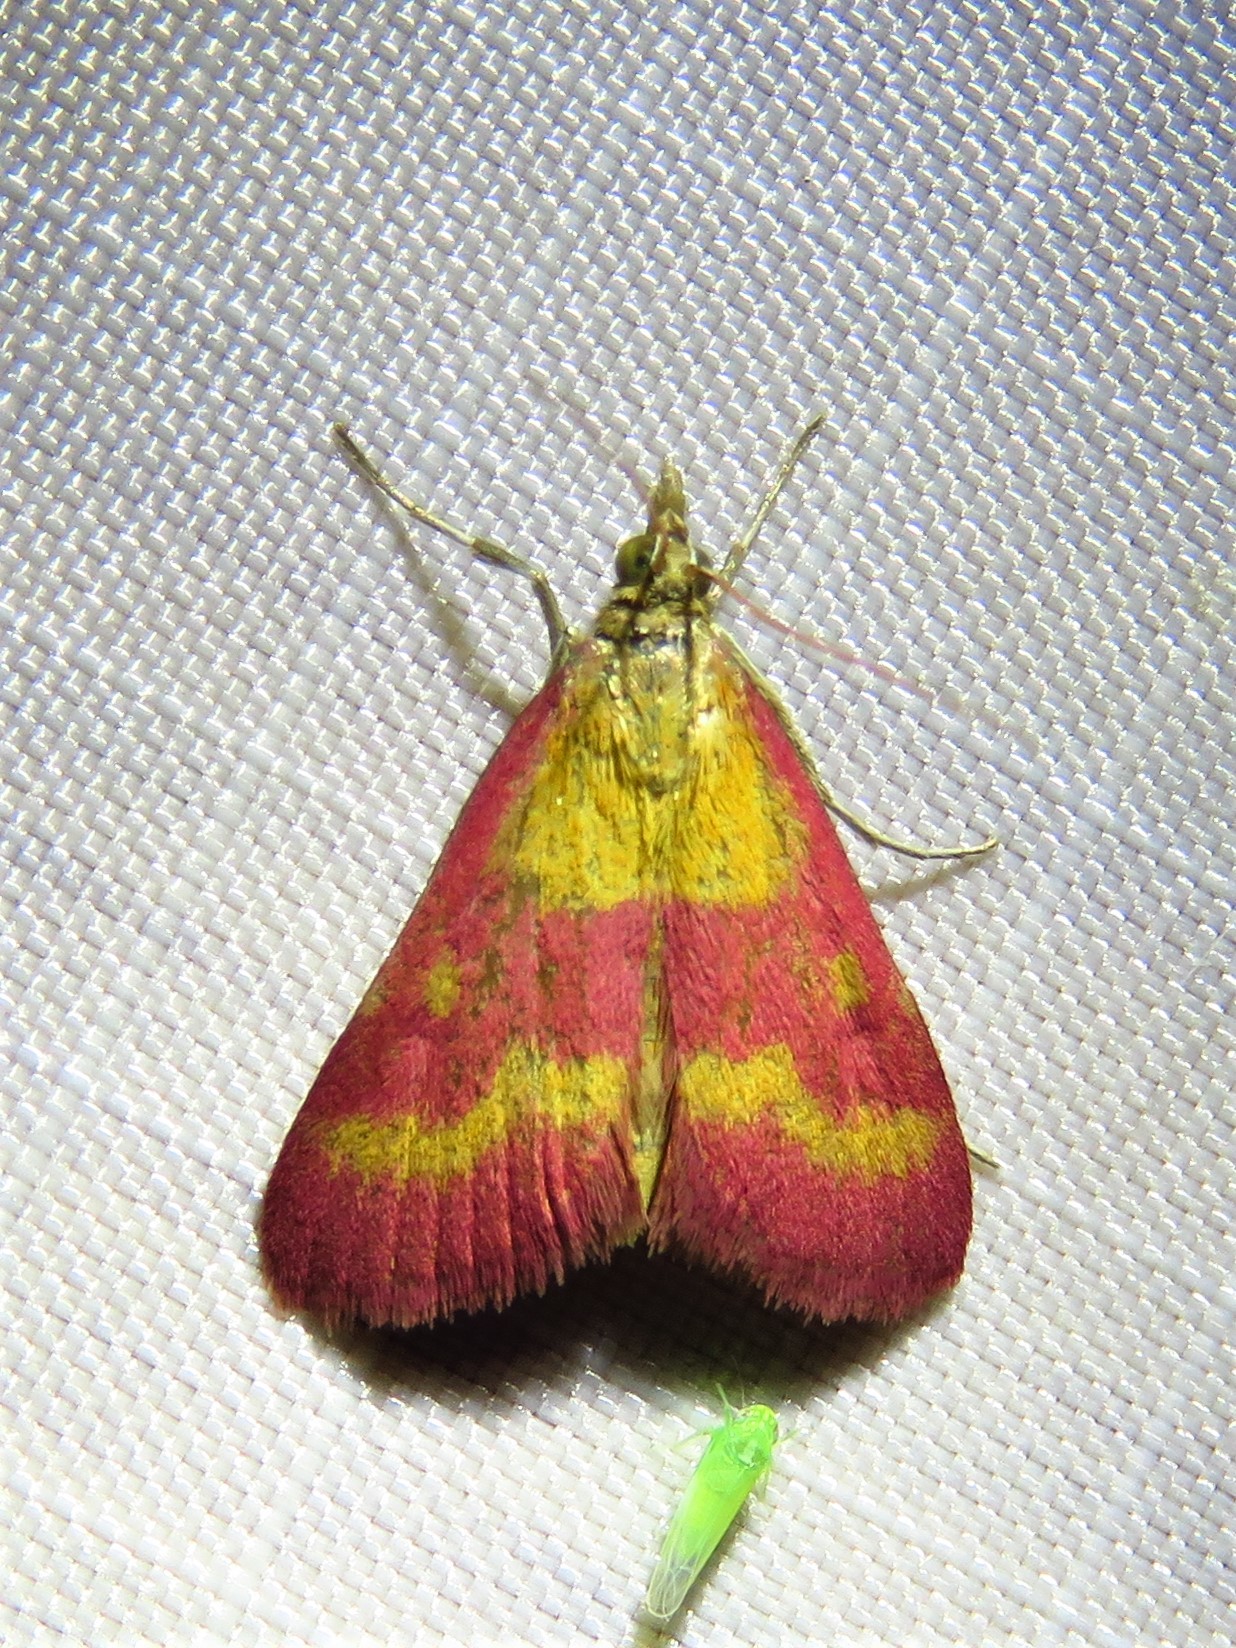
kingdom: Animalia
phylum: Arthropoda
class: Insecta
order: Lepidoptera
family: Crambidae
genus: Pyrausta
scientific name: Pyrausta laticlavia
